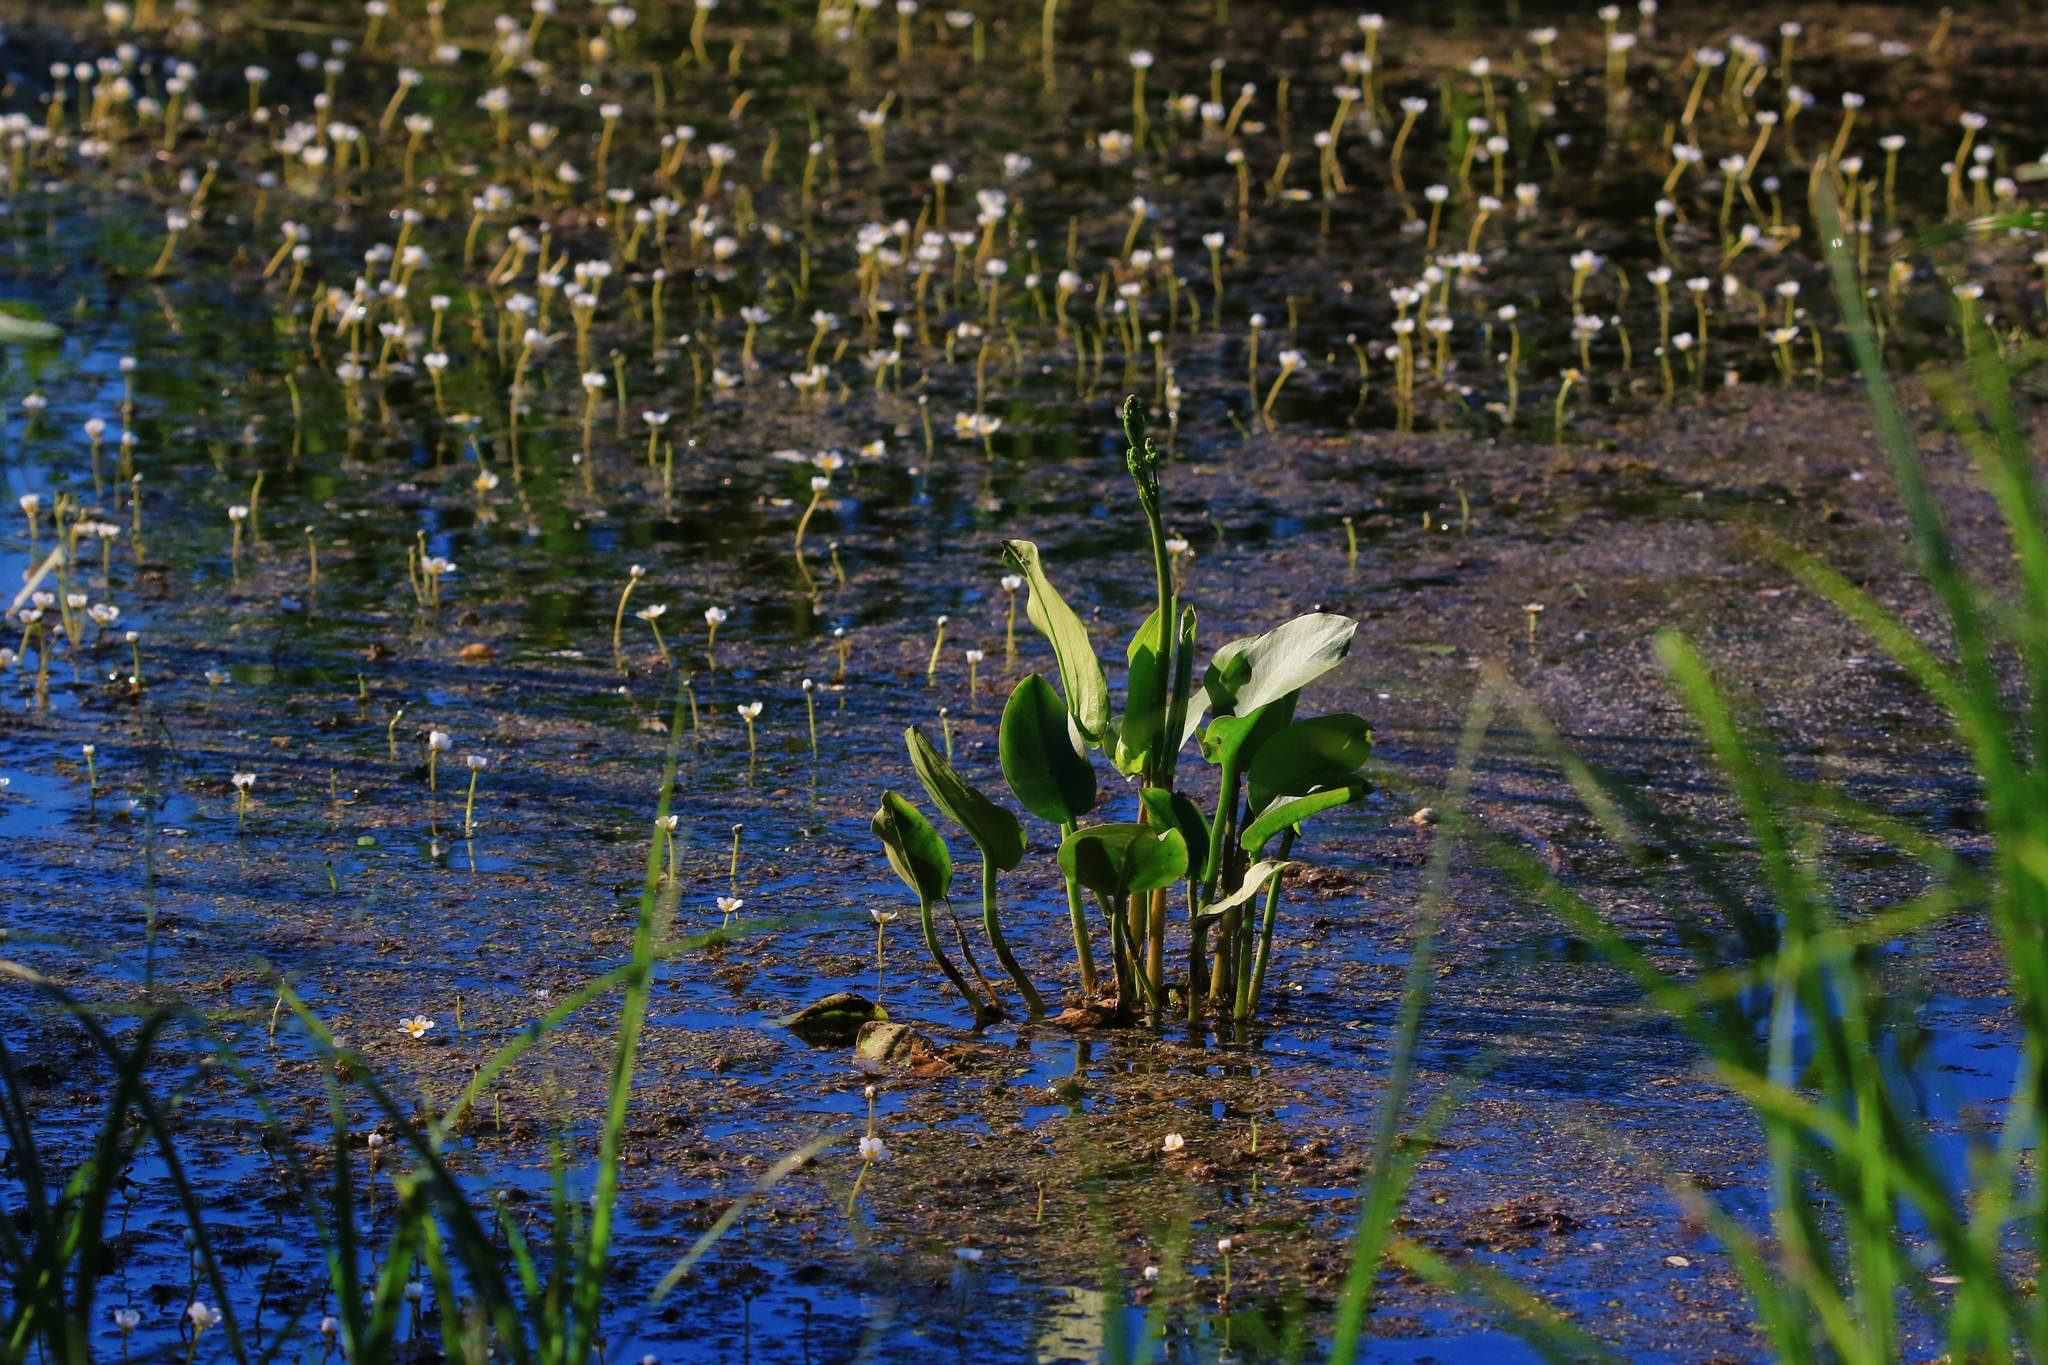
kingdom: Plantae
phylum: Tracheophyta
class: Liliopsida
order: Alismatales
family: Alismataceae
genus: Alisma
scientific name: Alisma plantago-aquatica
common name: Water-plantain
